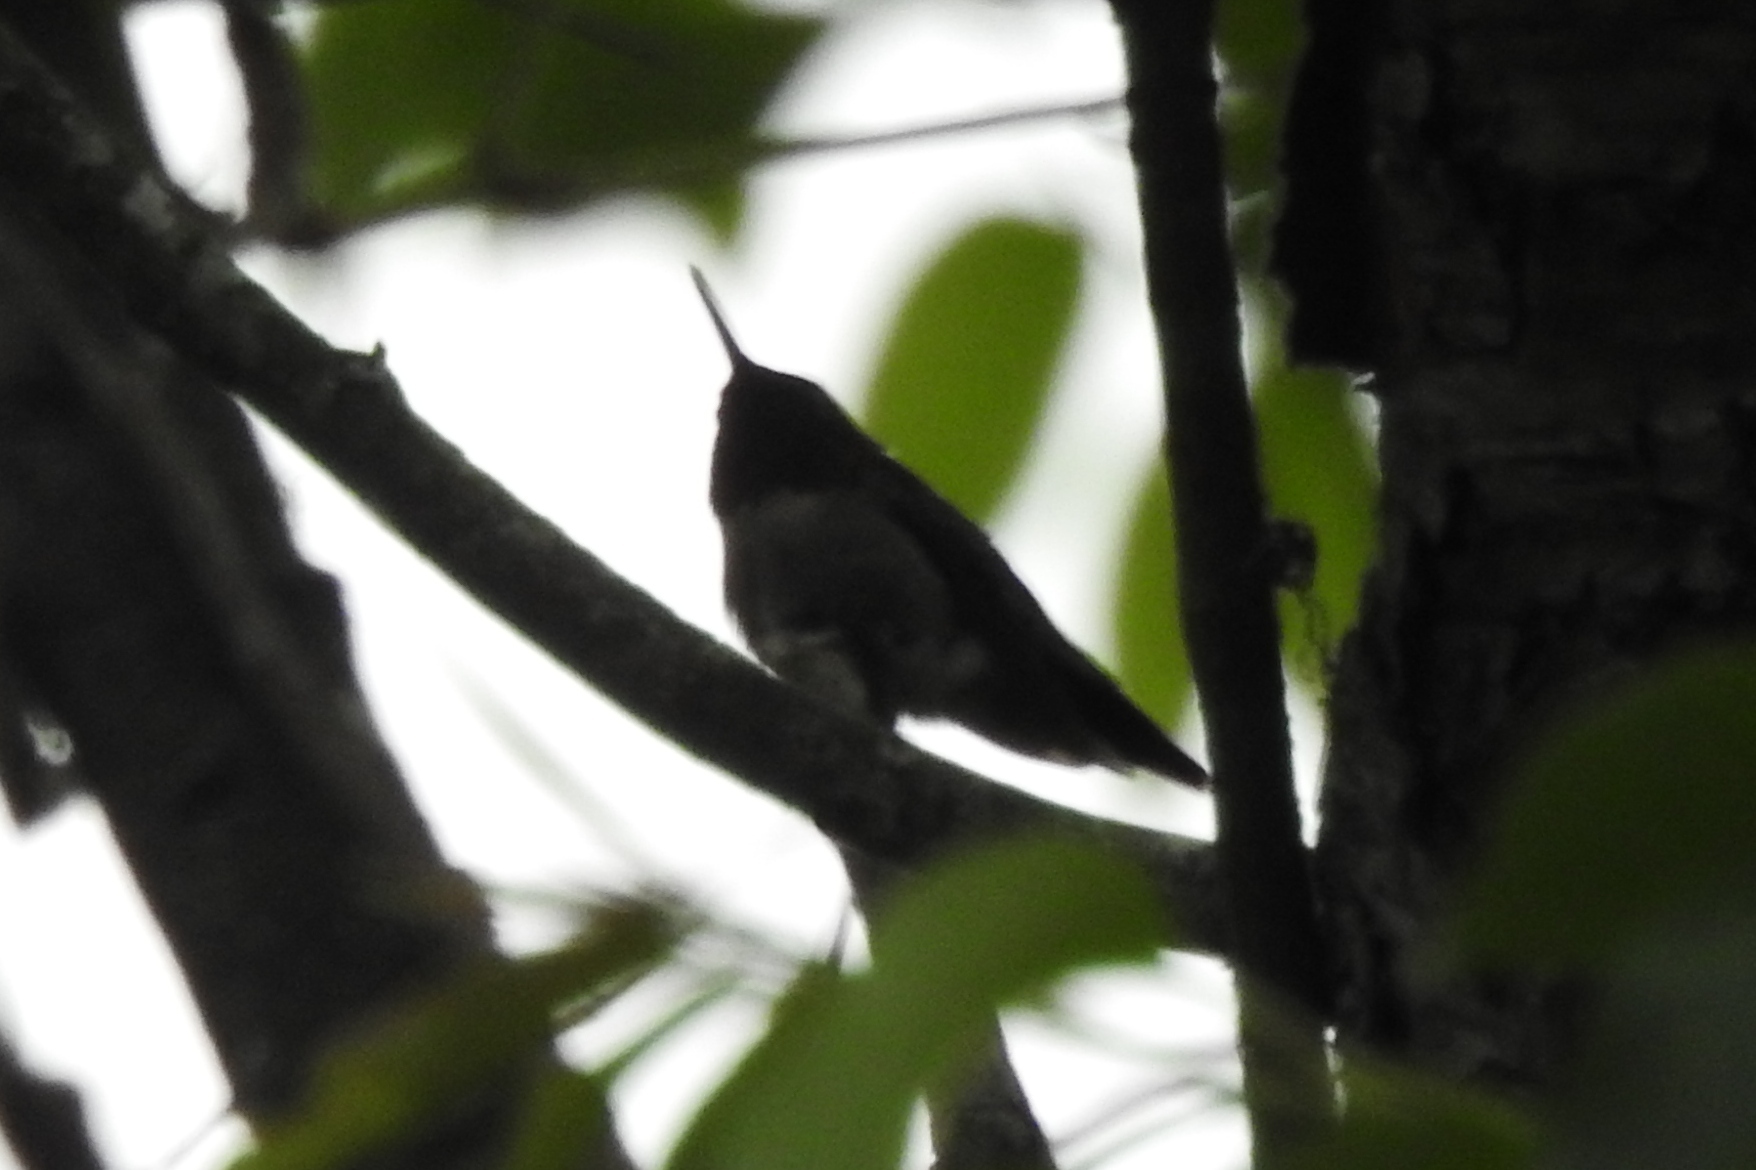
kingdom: Animalia
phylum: Chordata
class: Aves
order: Apodiformes
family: Trochilidae
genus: Archilochus
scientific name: Archilochus colubris
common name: Ruby-throated hummingbird
